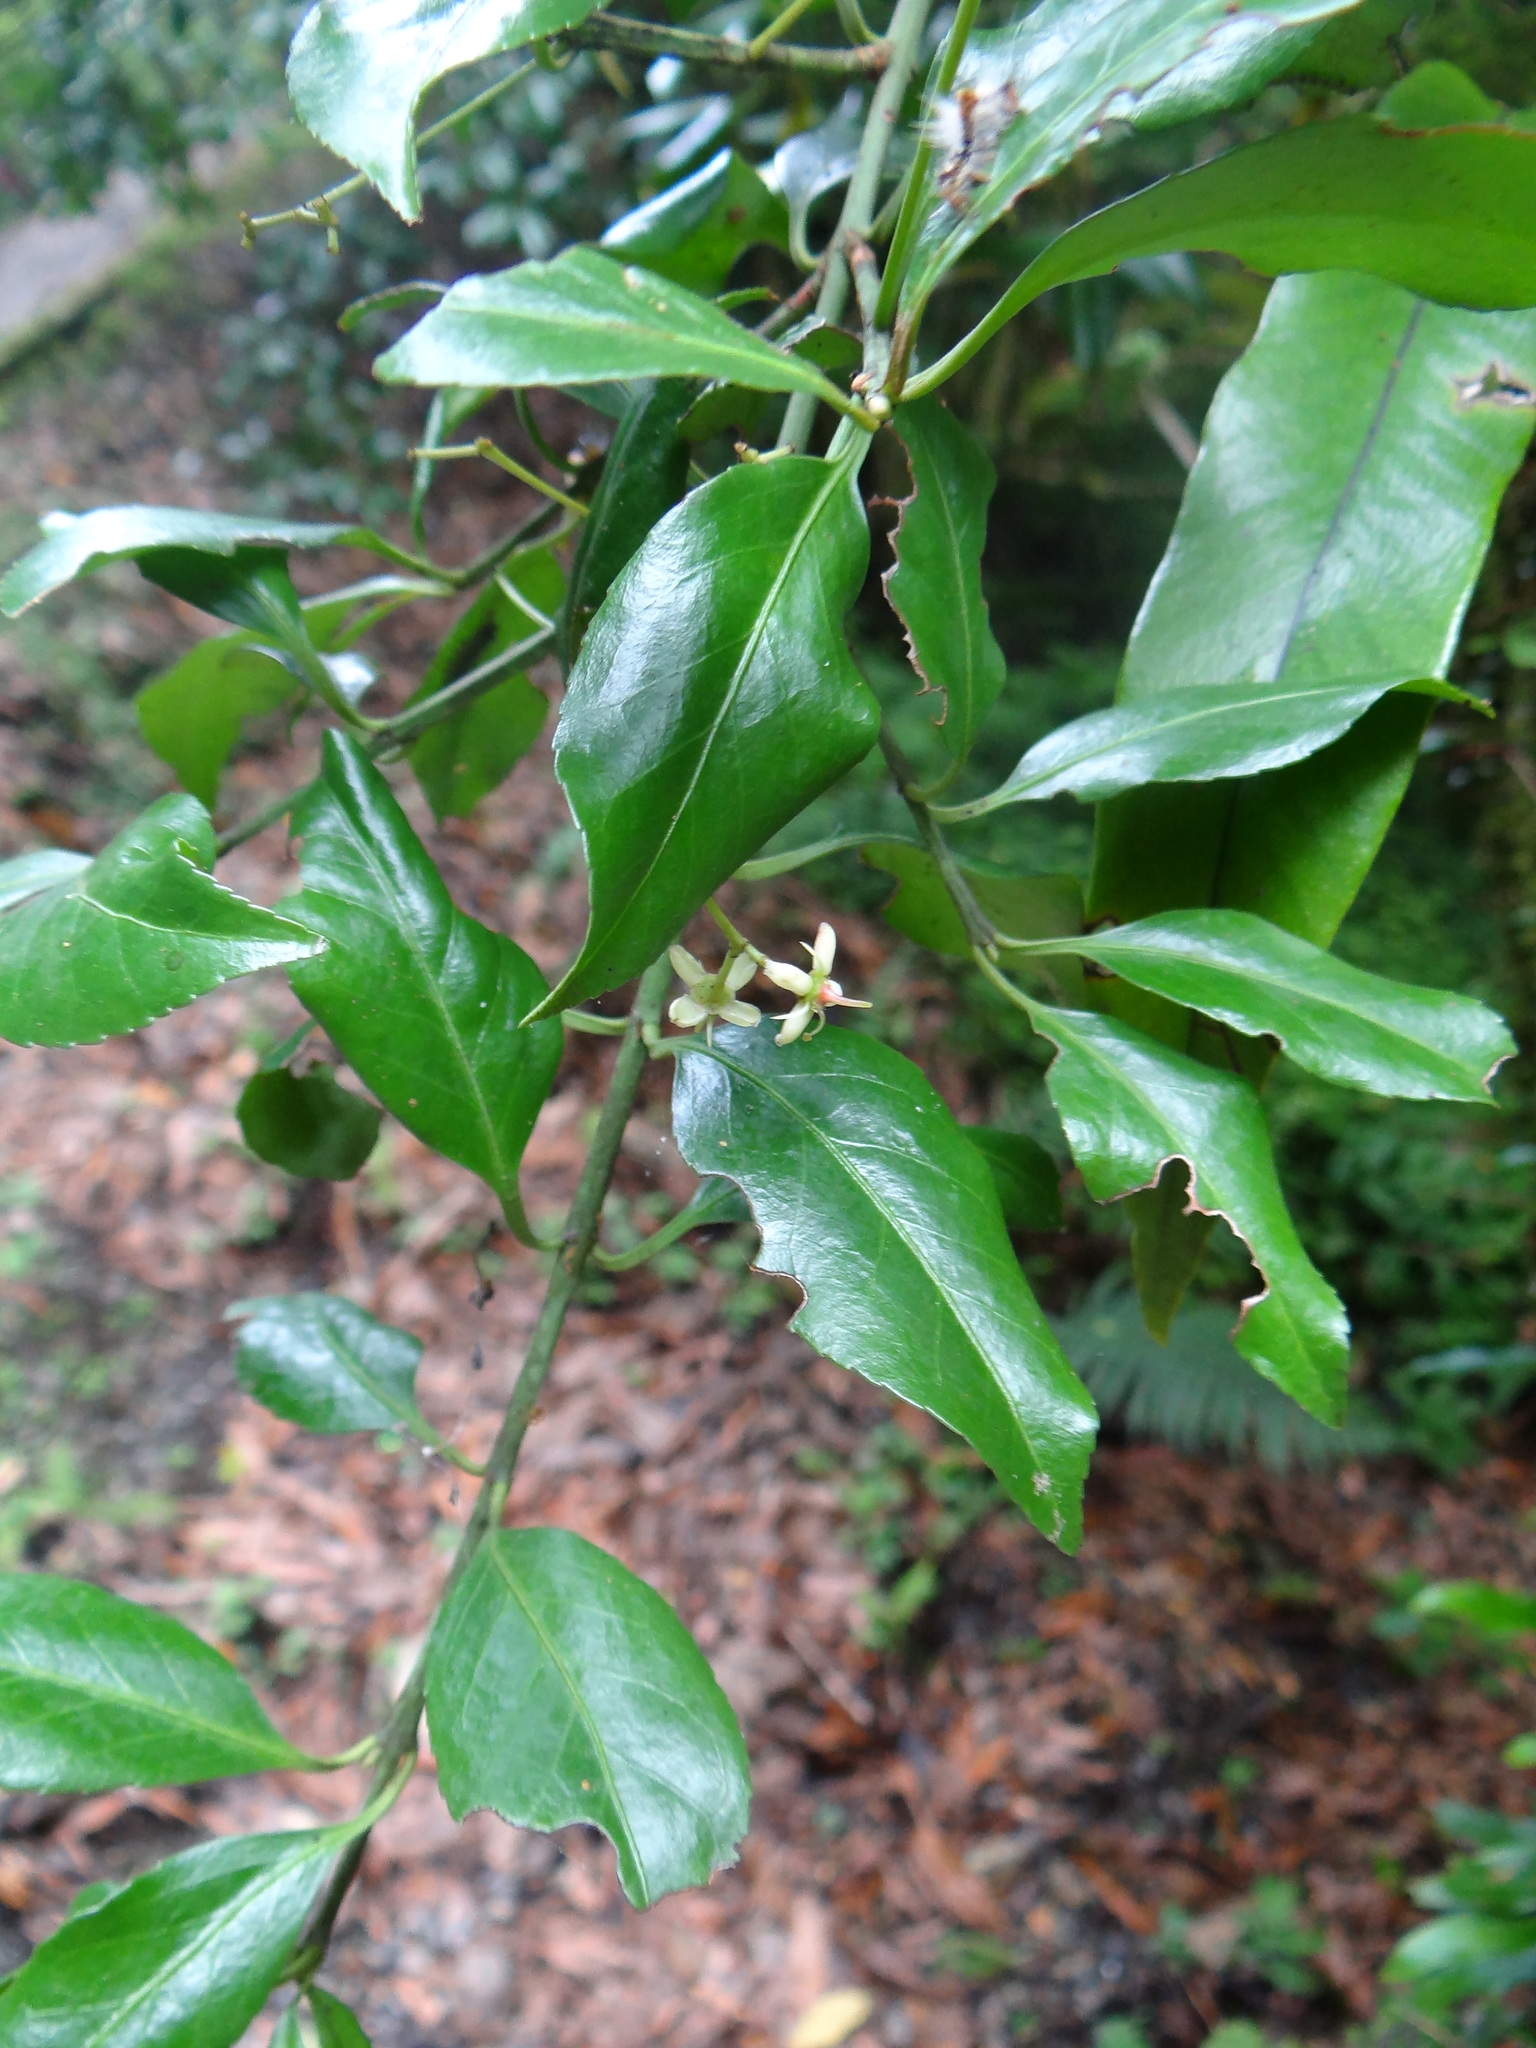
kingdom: Plantae
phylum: Tracheophyta
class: Magnoliopsida
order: Celastrales
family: Celastraceae
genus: Euonymus
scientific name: Euonymus spraguei
